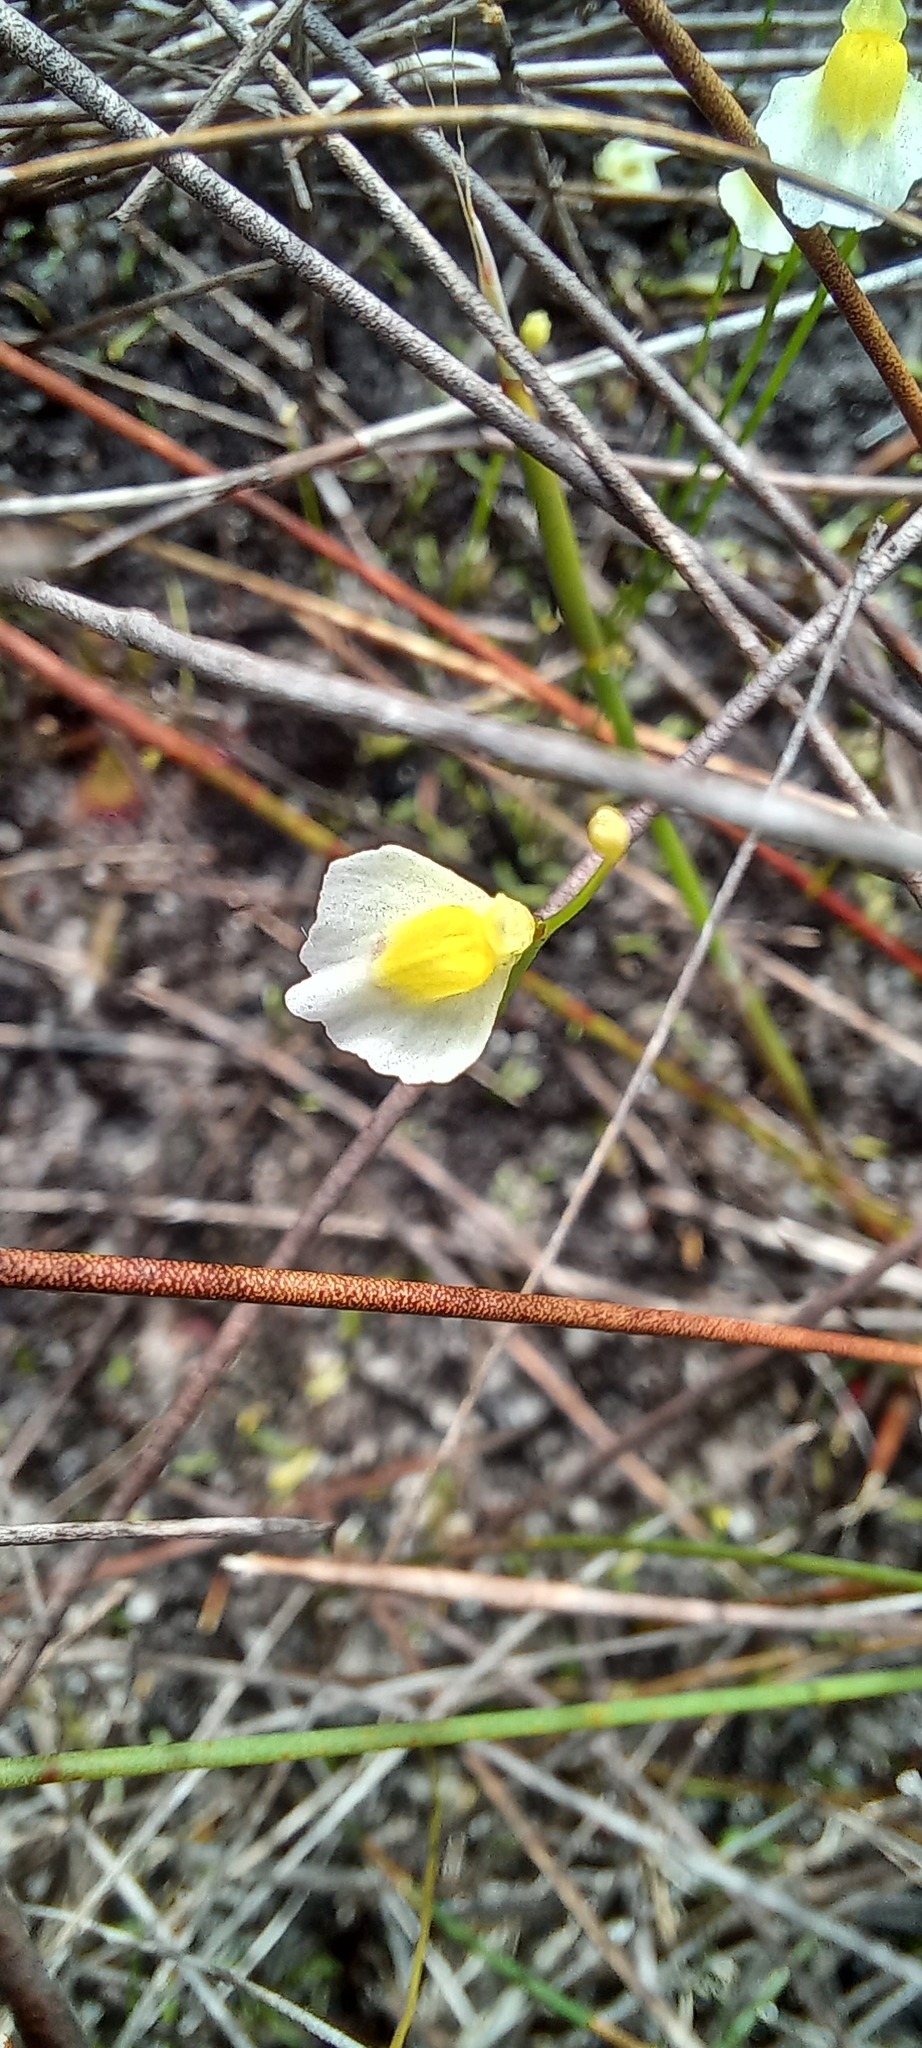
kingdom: Plantae
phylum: Tracheophyta
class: Magnoliopsida
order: Lamiales
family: Lentibulariaceae
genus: Utricularia
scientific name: Utricularia bisquamata
